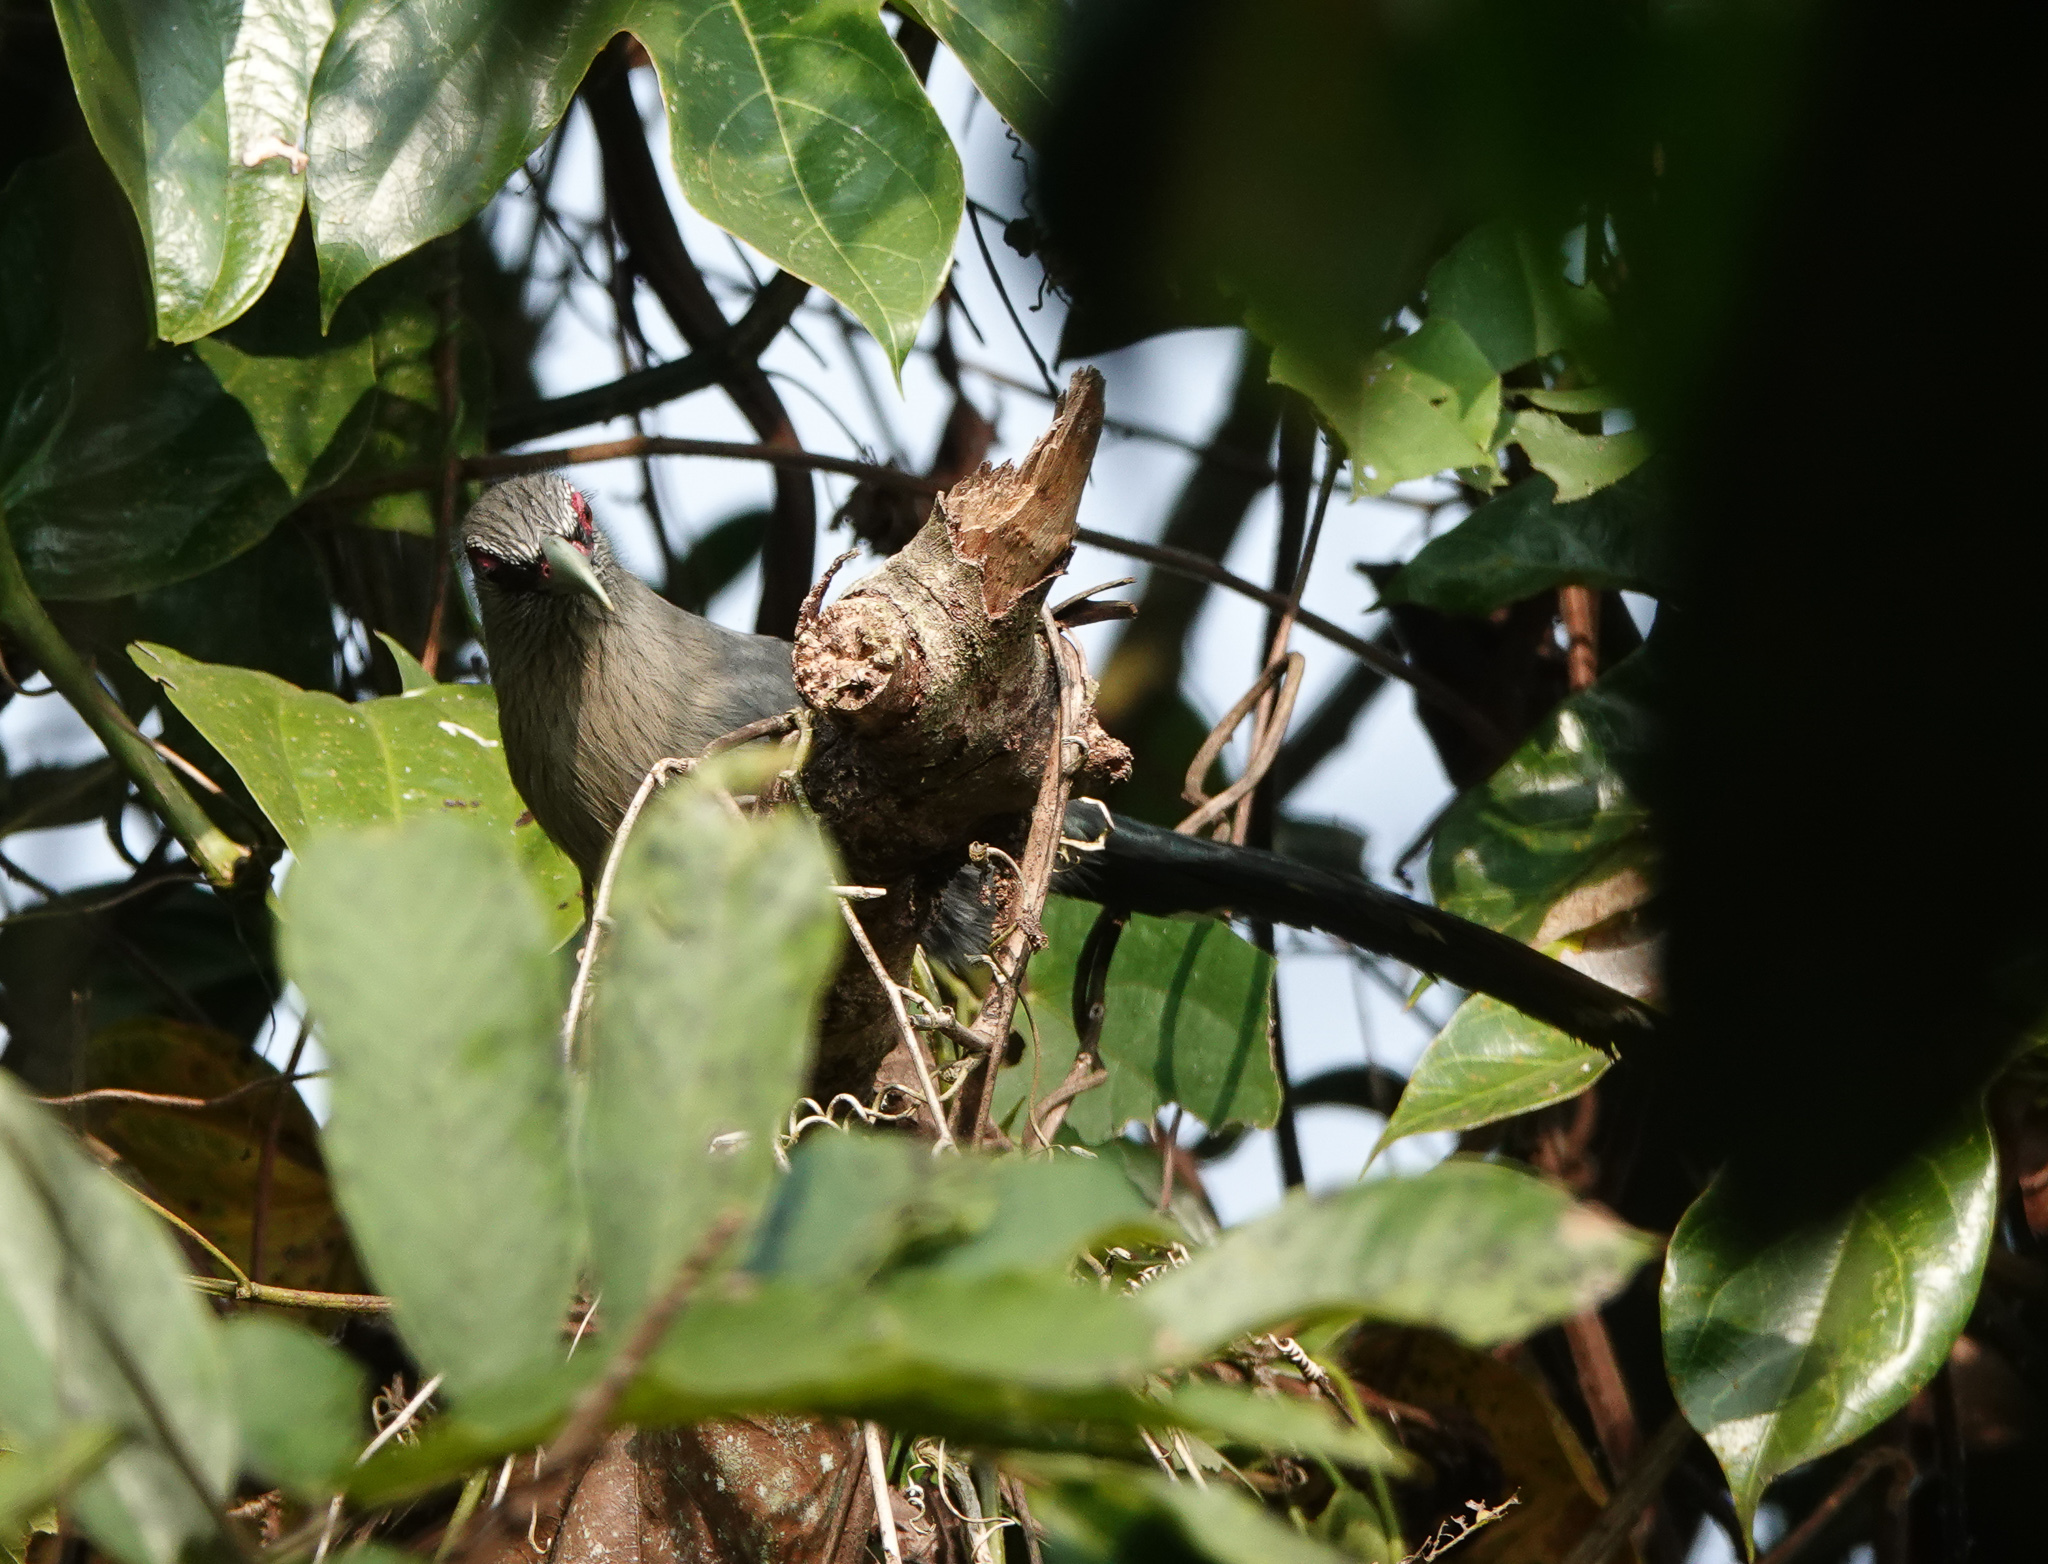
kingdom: Animalia
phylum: Chordata
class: Aves
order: Cuculiformes
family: Cuculidae
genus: Rhopodytes
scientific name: Rhopodytes tristis
